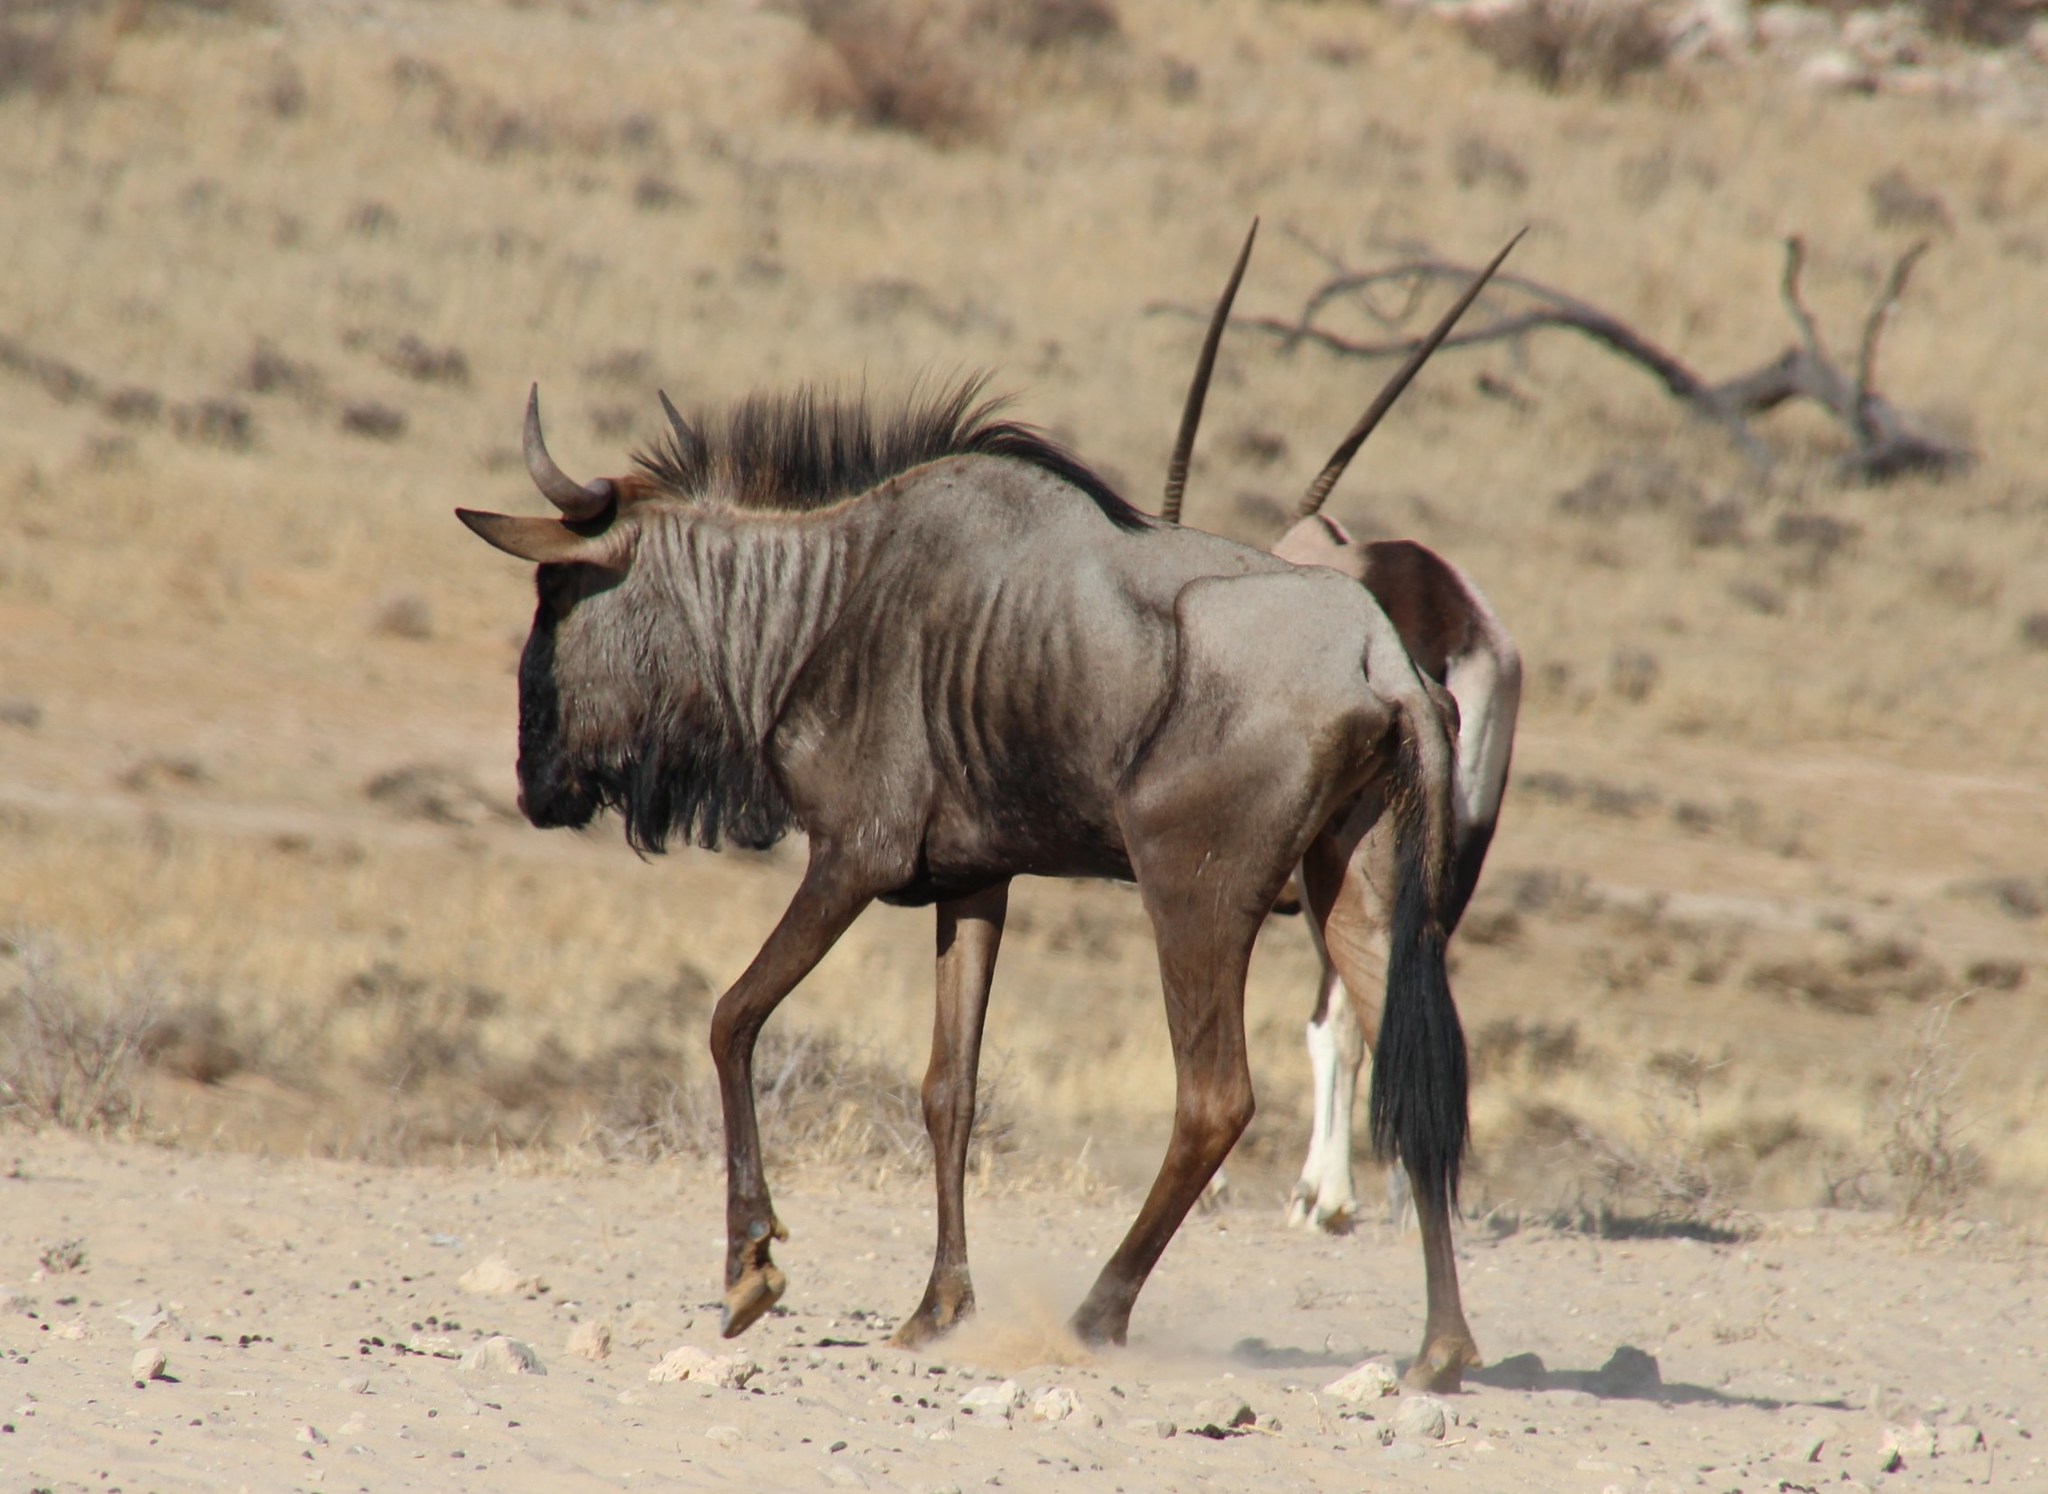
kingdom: Animalia
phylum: Chordata
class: Mammalia
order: Artiodactyla
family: Bovidae
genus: Connochaetes
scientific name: Connochaetes taurinus
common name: Blue wildebeest
